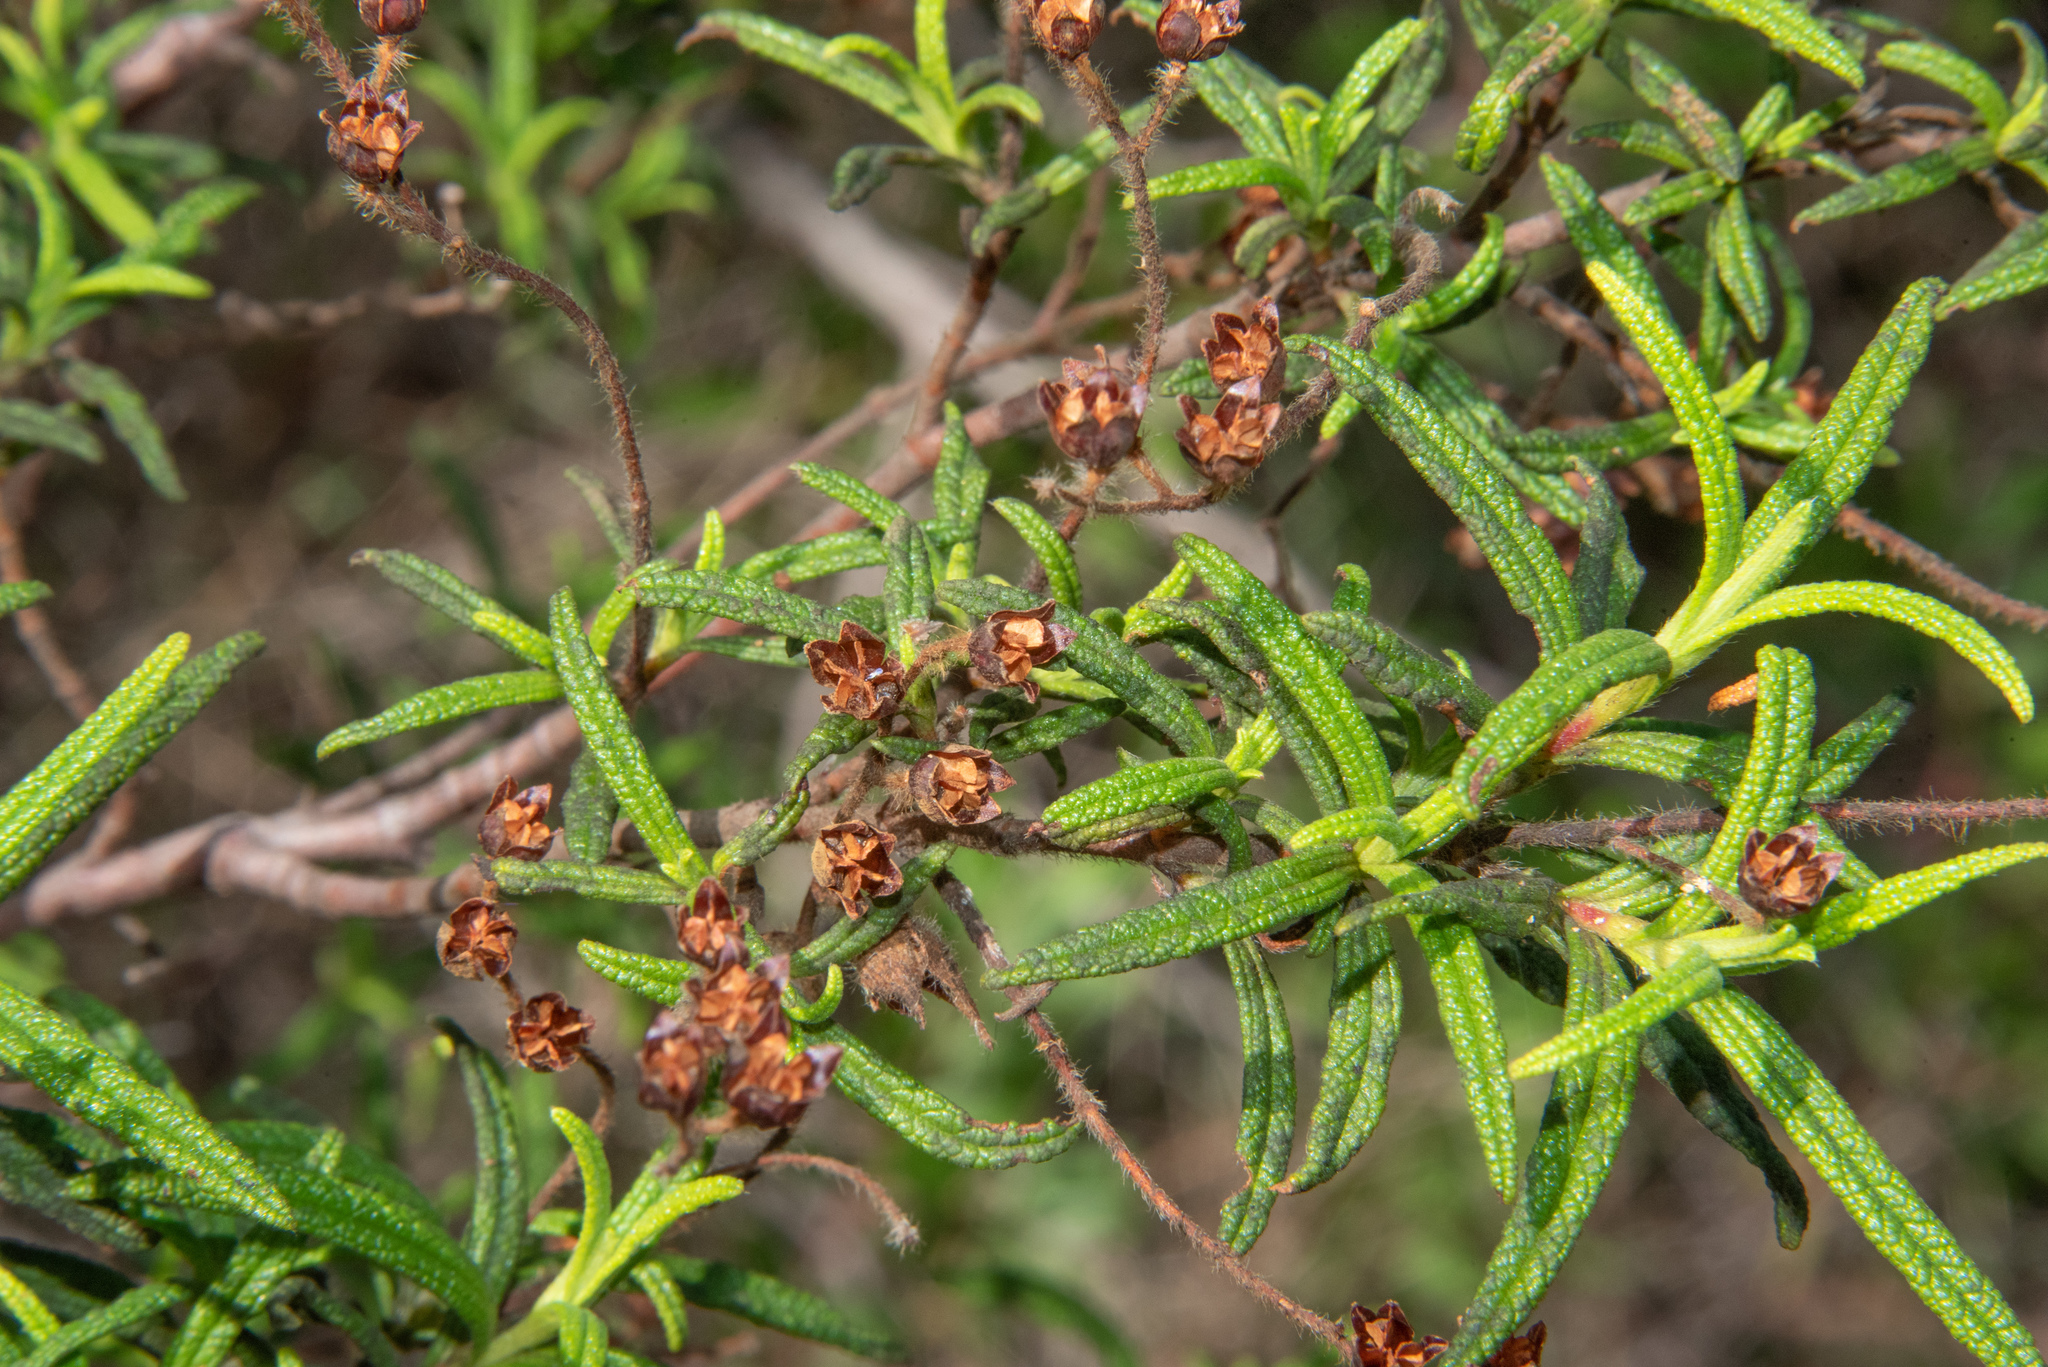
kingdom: Plantae
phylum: Tracheophyta
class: Magnoliopsida
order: Malvales
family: Cistaceae
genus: Cistus
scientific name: Cistus monspeliensis
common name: Montpelier cistus
